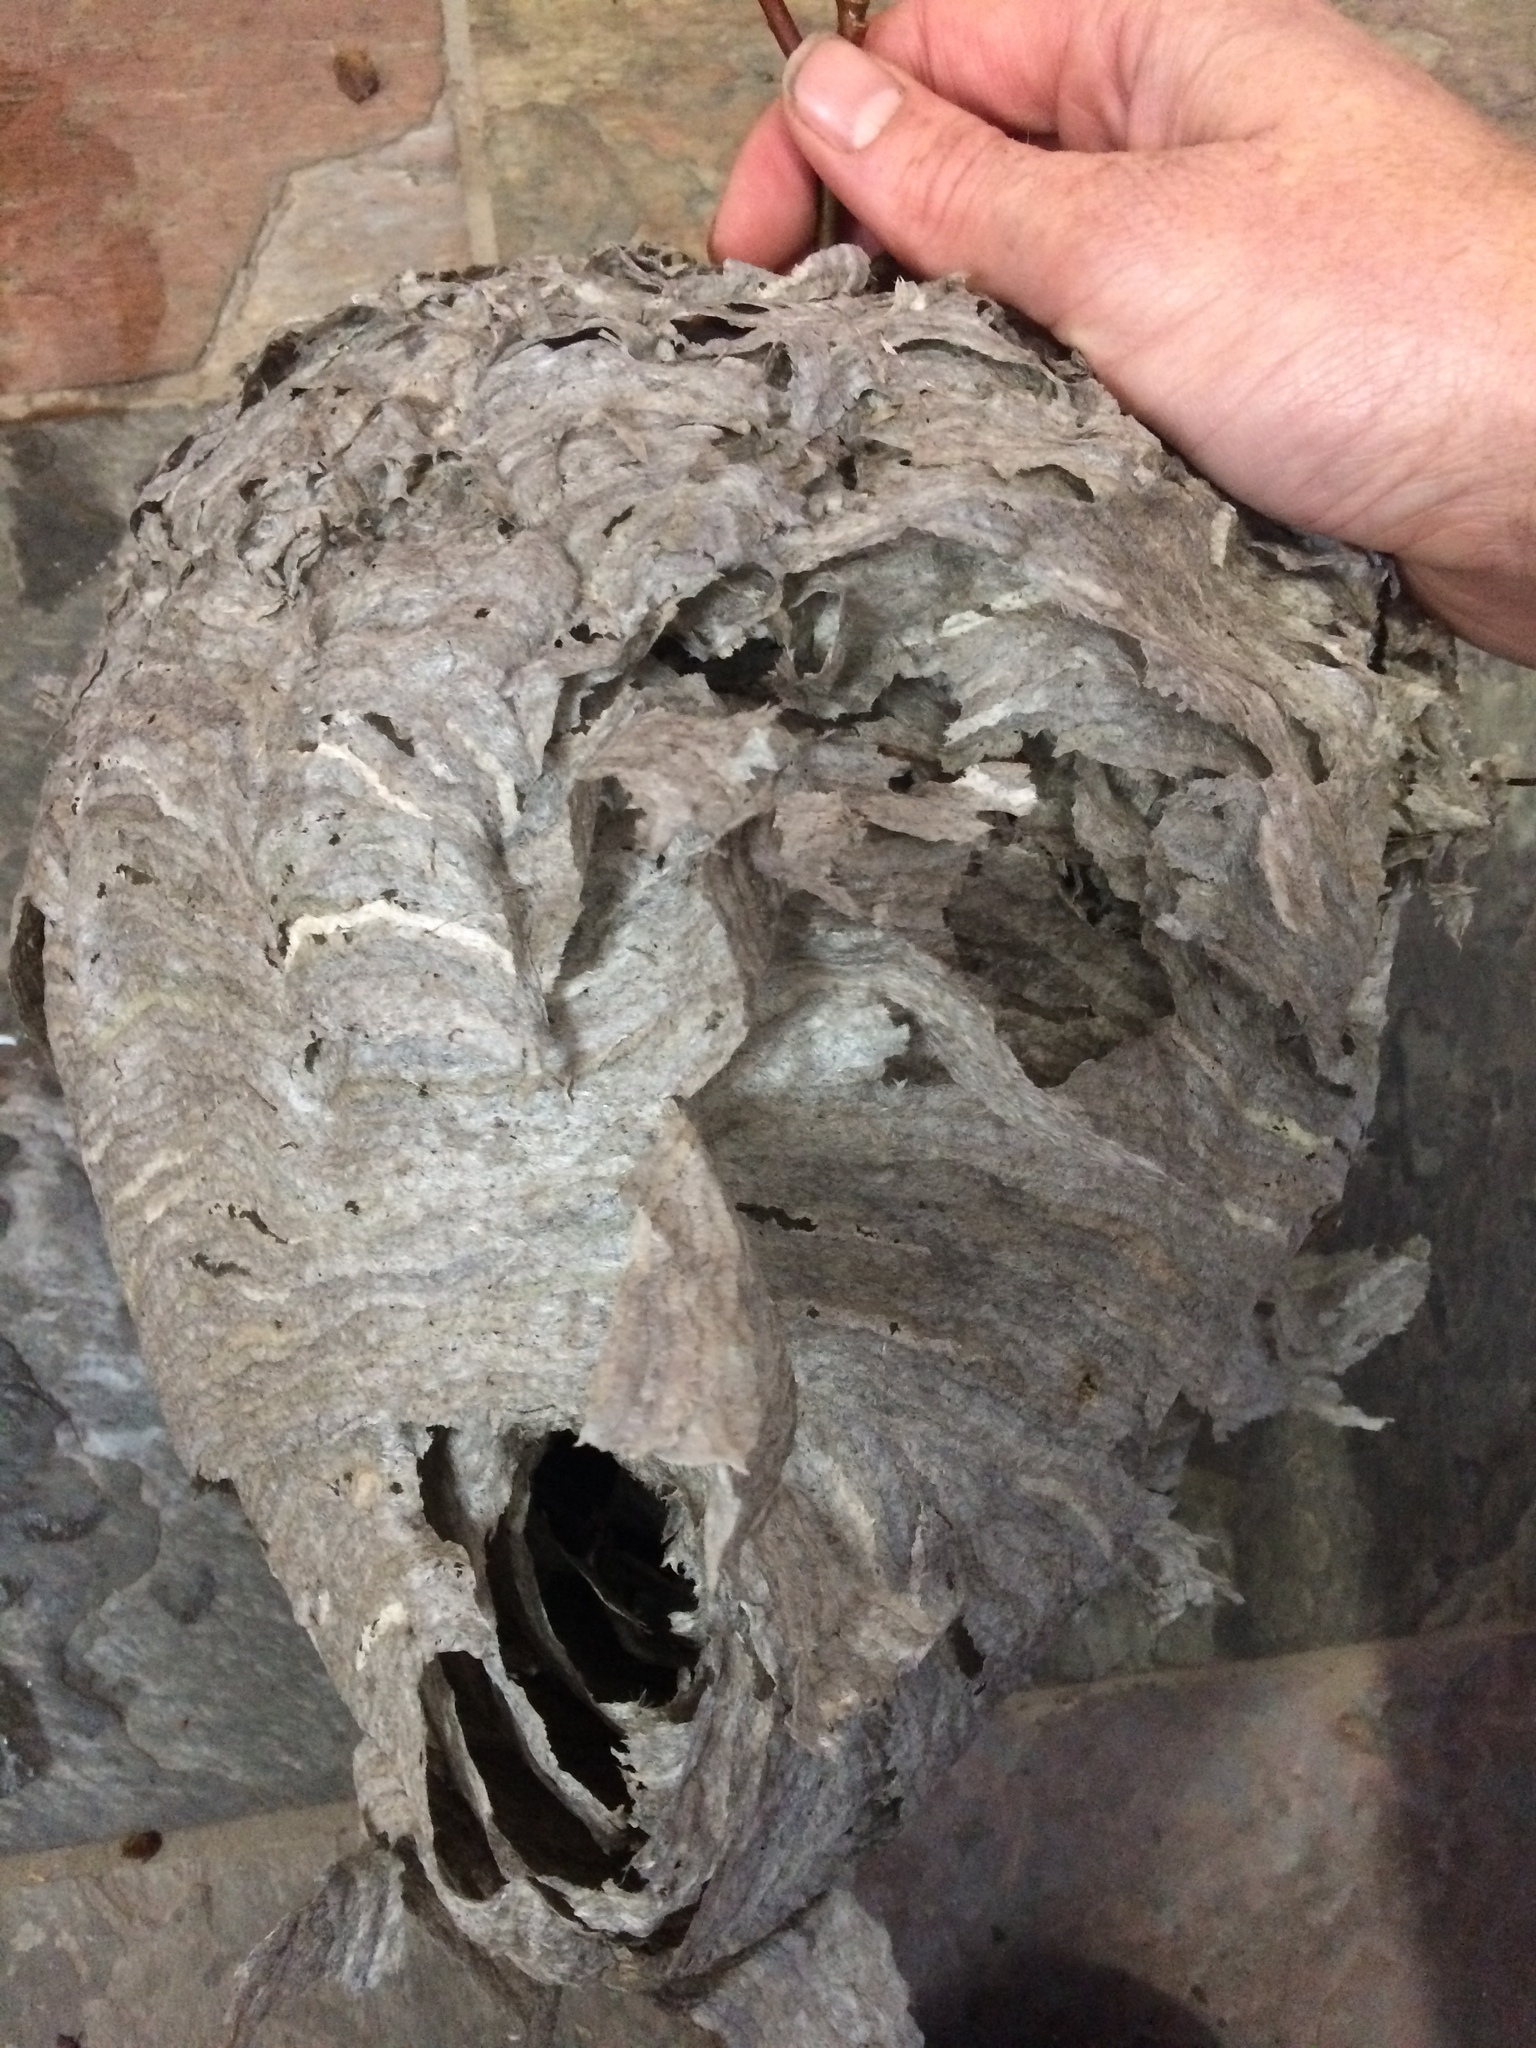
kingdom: Animalia
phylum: Arthropoda
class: Insecta
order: Hymenoptera
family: Vespidae
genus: Dolichovespula
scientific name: Dolichovespula maculata
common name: Bald-faced hornet
